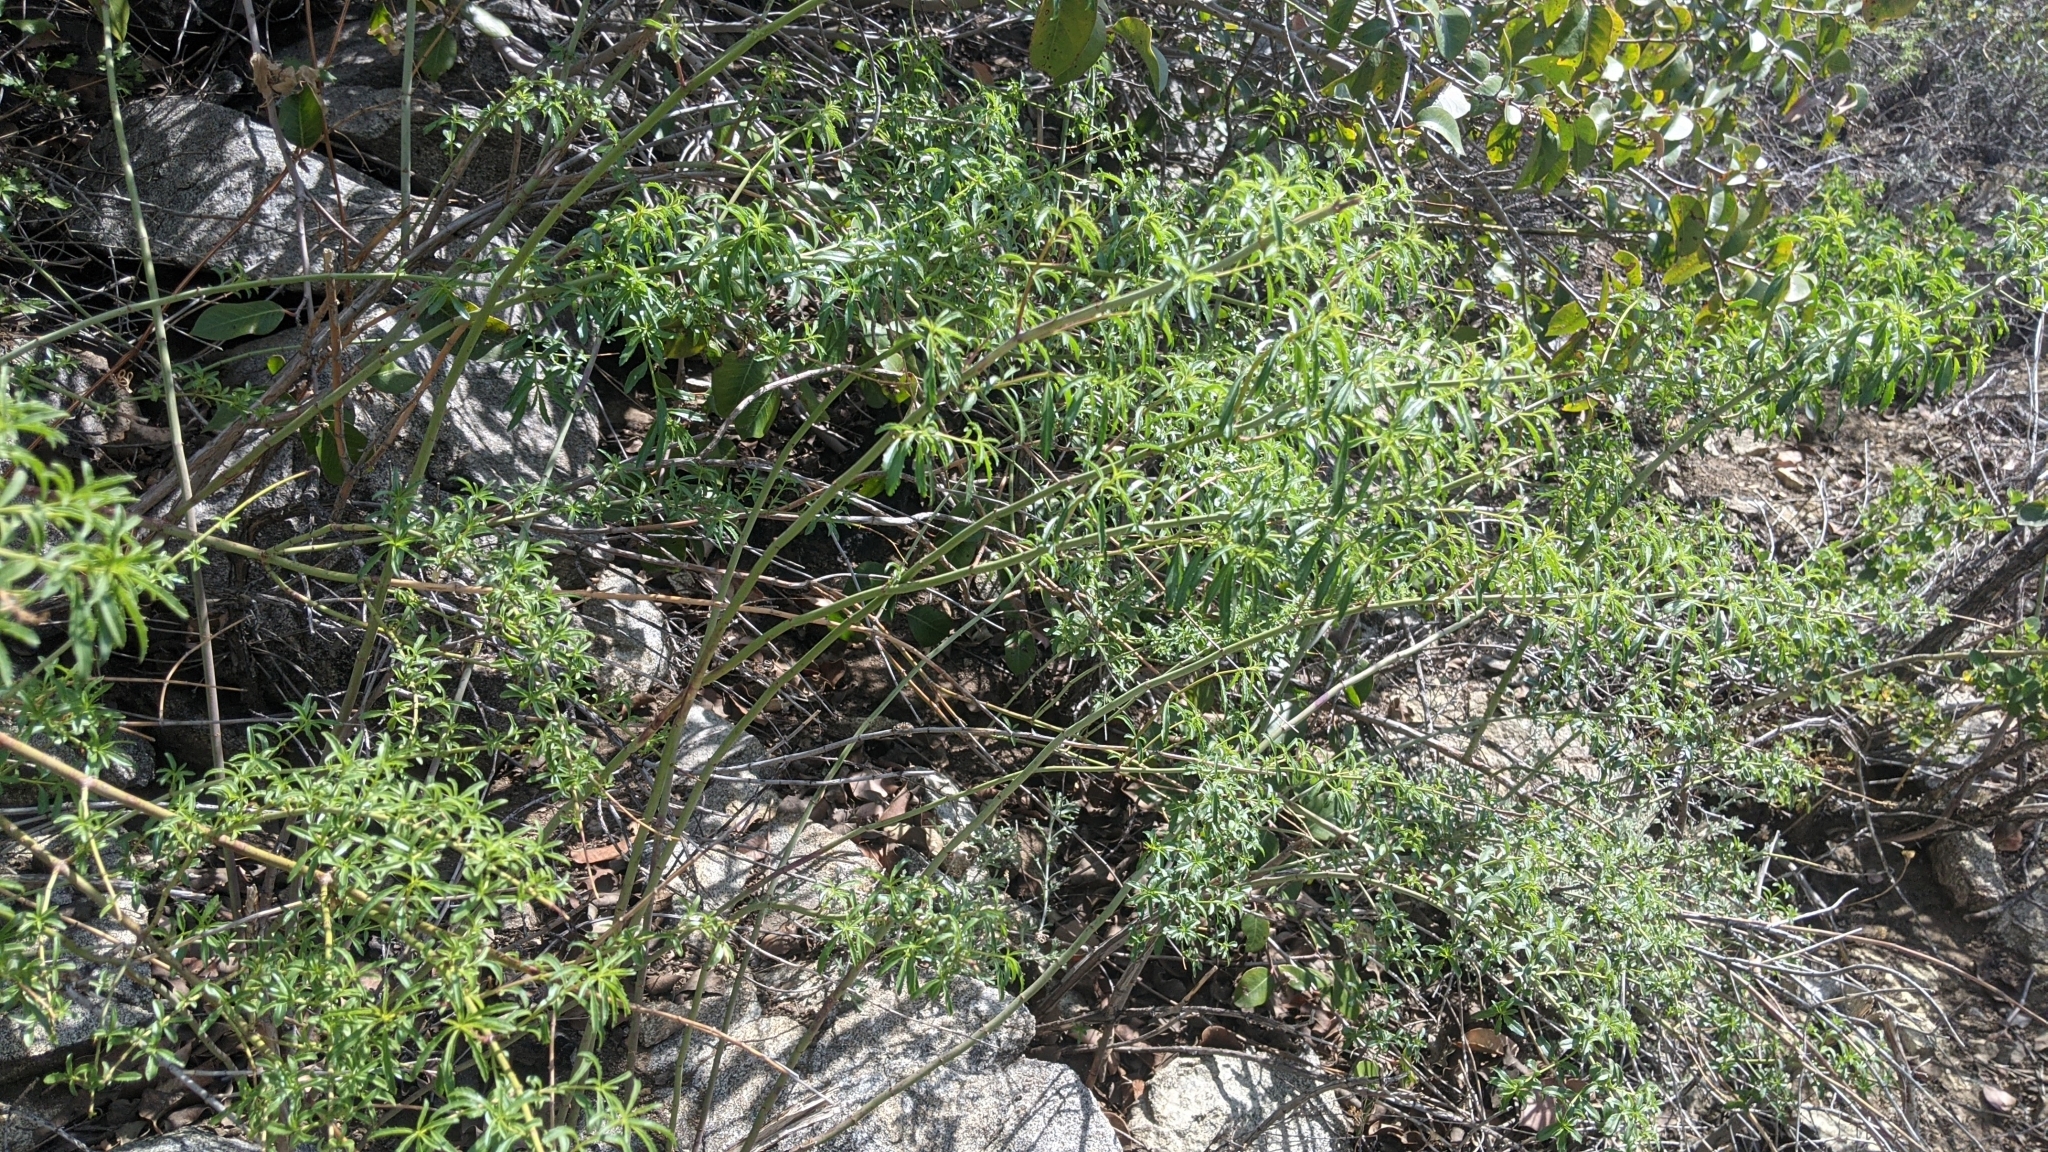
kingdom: Plantae
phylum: Tracheophyta
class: Magnoliopsida
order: Lamiales
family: Plantaginaceae
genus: Keckiella
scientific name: Keckiella ternata
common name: Scarlet keckiella
